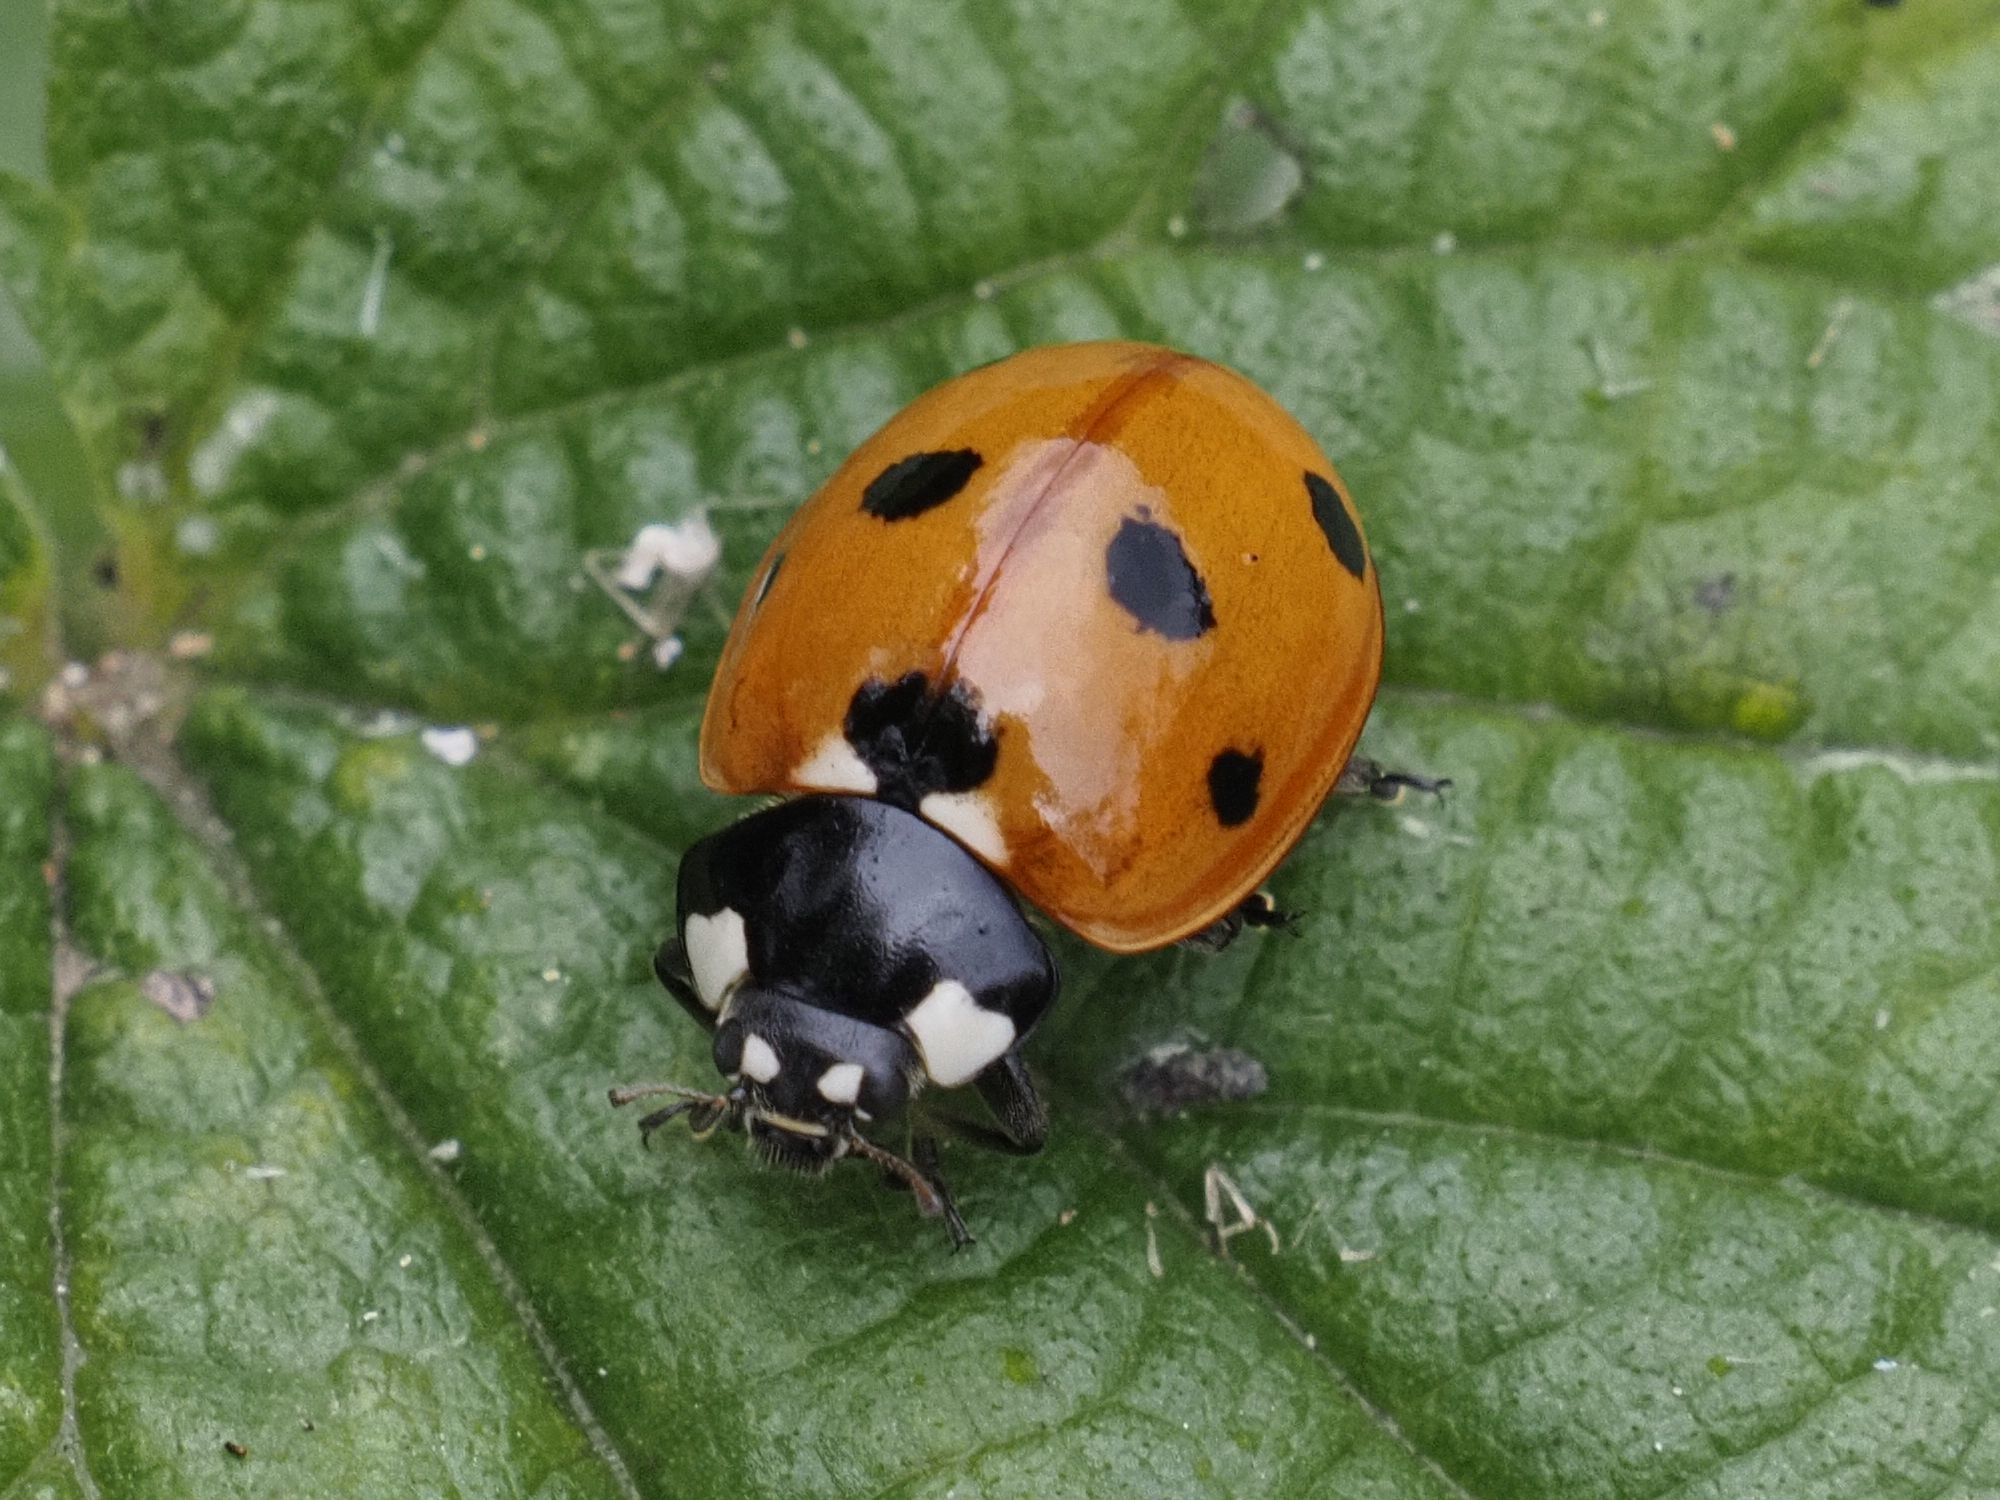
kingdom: Animalia
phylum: Arthropoda
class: Insecta
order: Coleoptera
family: Coccinellidae
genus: Coccinella
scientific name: Coccinella septempunctata
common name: Sevenspotted lady beetle
